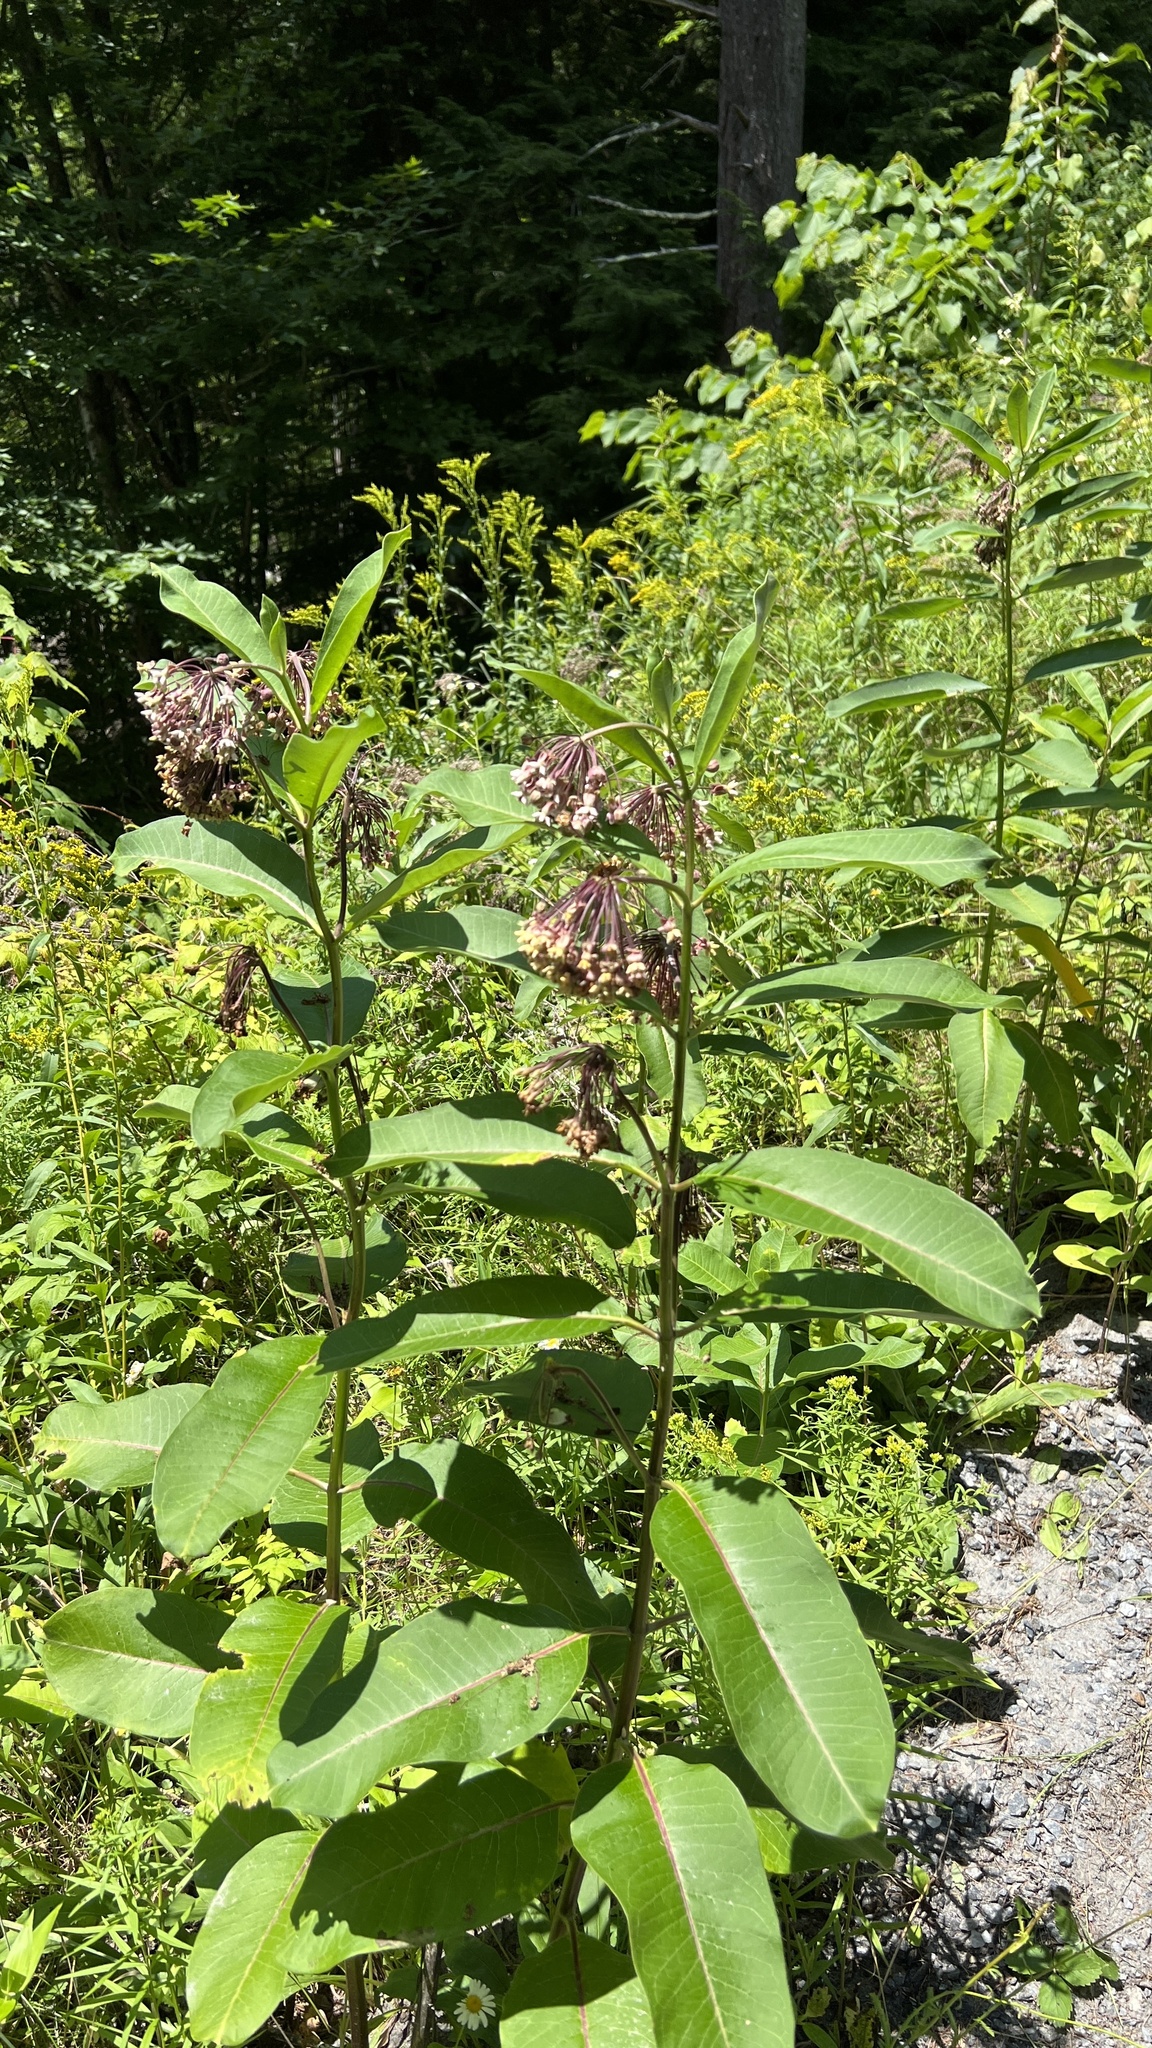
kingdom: Plantae
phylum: Tracheophyta
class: Magnoliopsida
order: Gentianales
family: Apocynaceae
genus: Asclepias
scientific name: Asclepias syriaca
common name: Common milkweed
